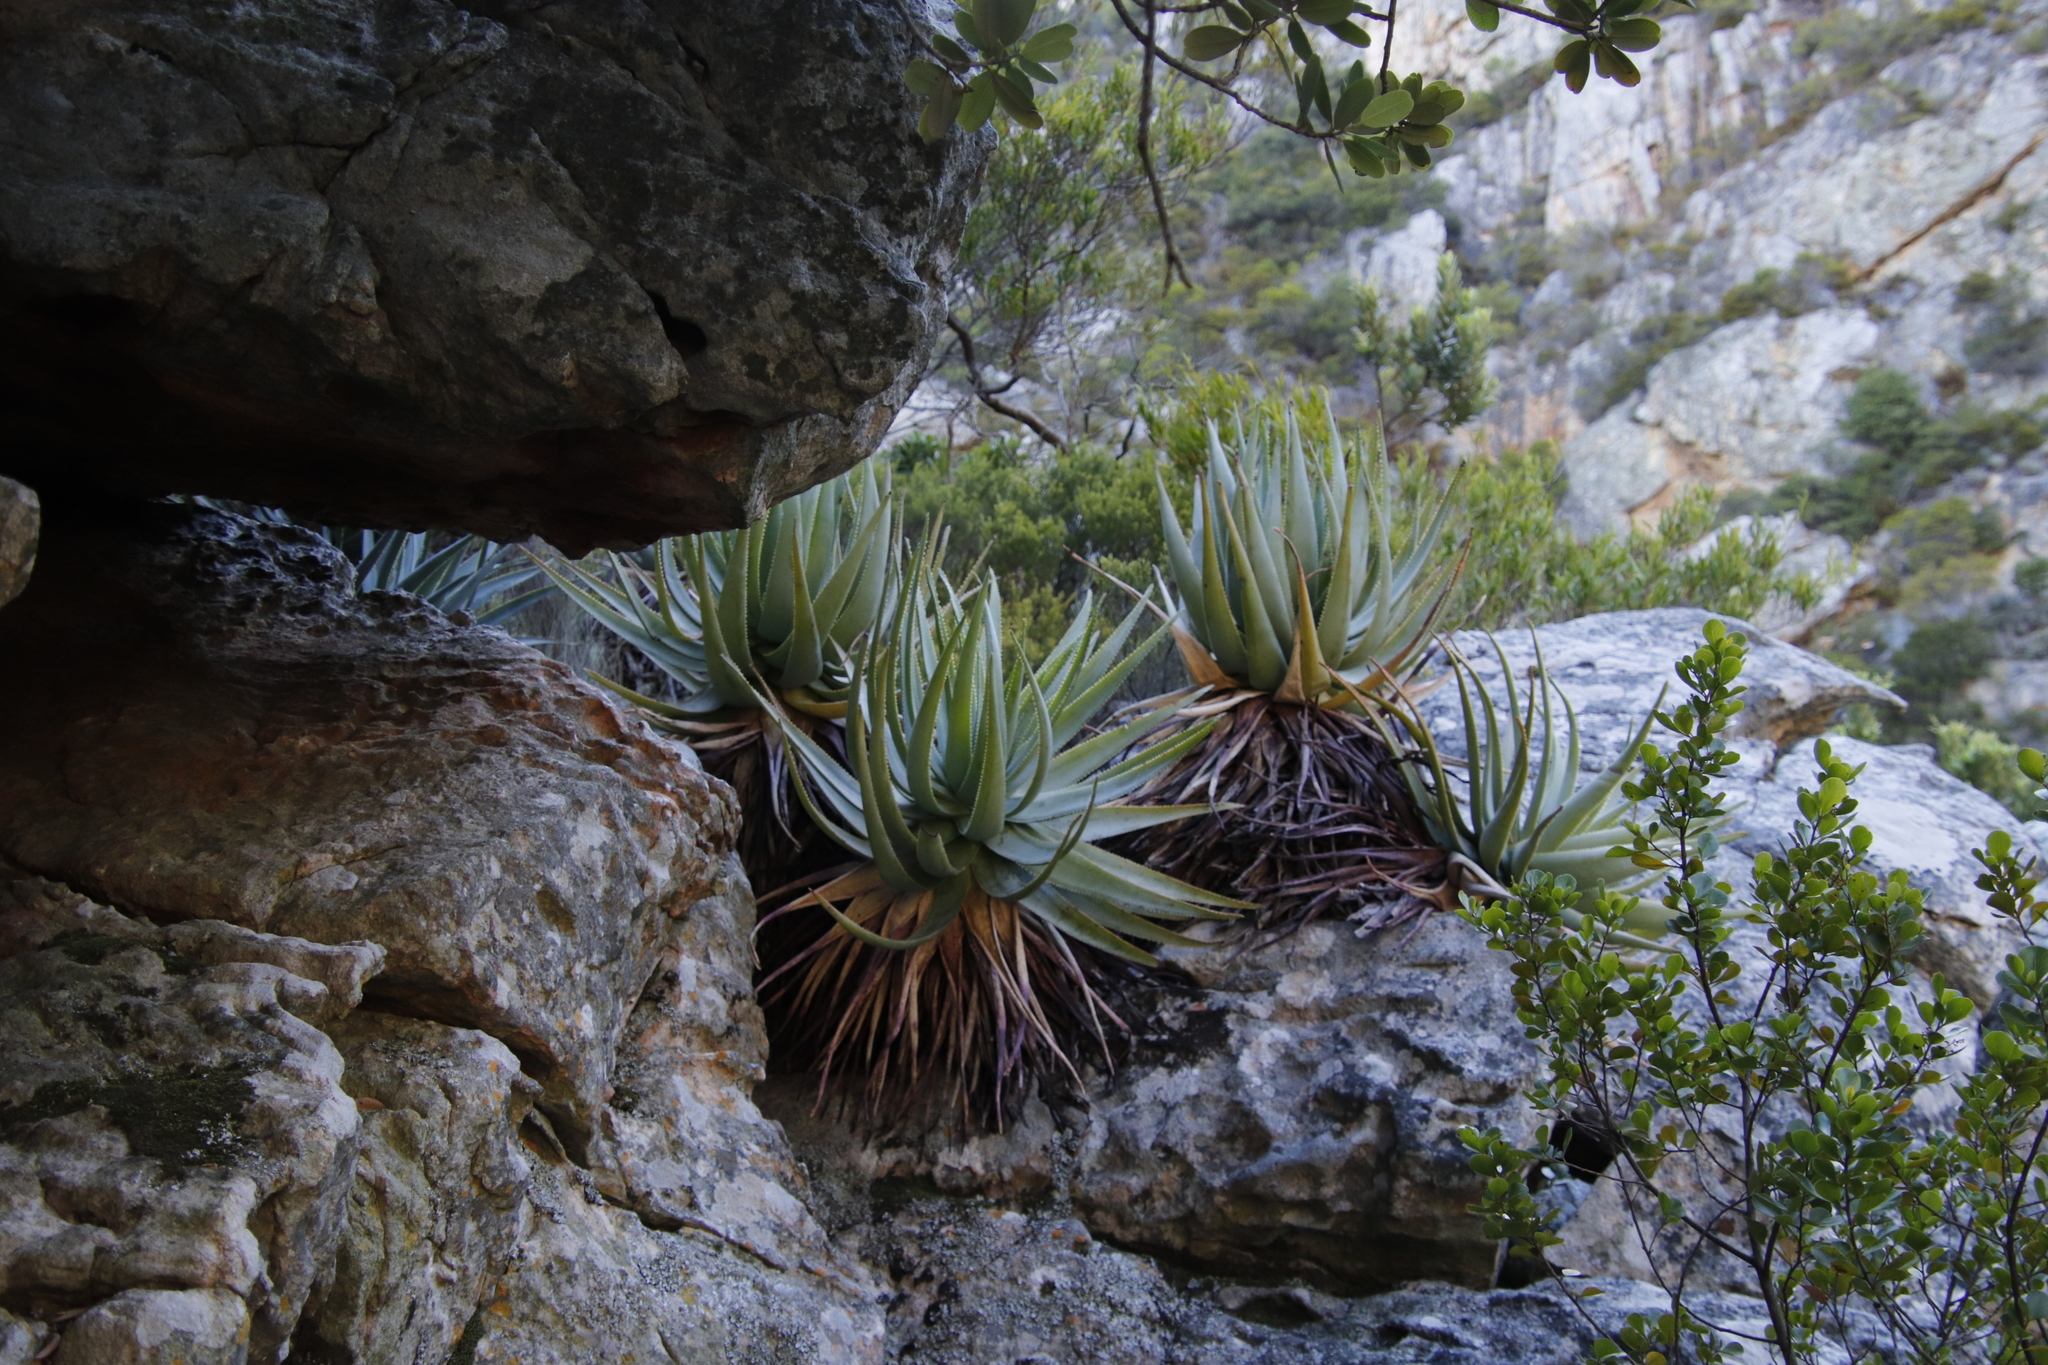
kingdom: Plantae
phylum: Tracheophyta
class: Liliopsida
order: Asparagales
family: Asphodelaceae
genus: Aloe
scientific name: Aloe succotrina
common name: Bombay aloe
